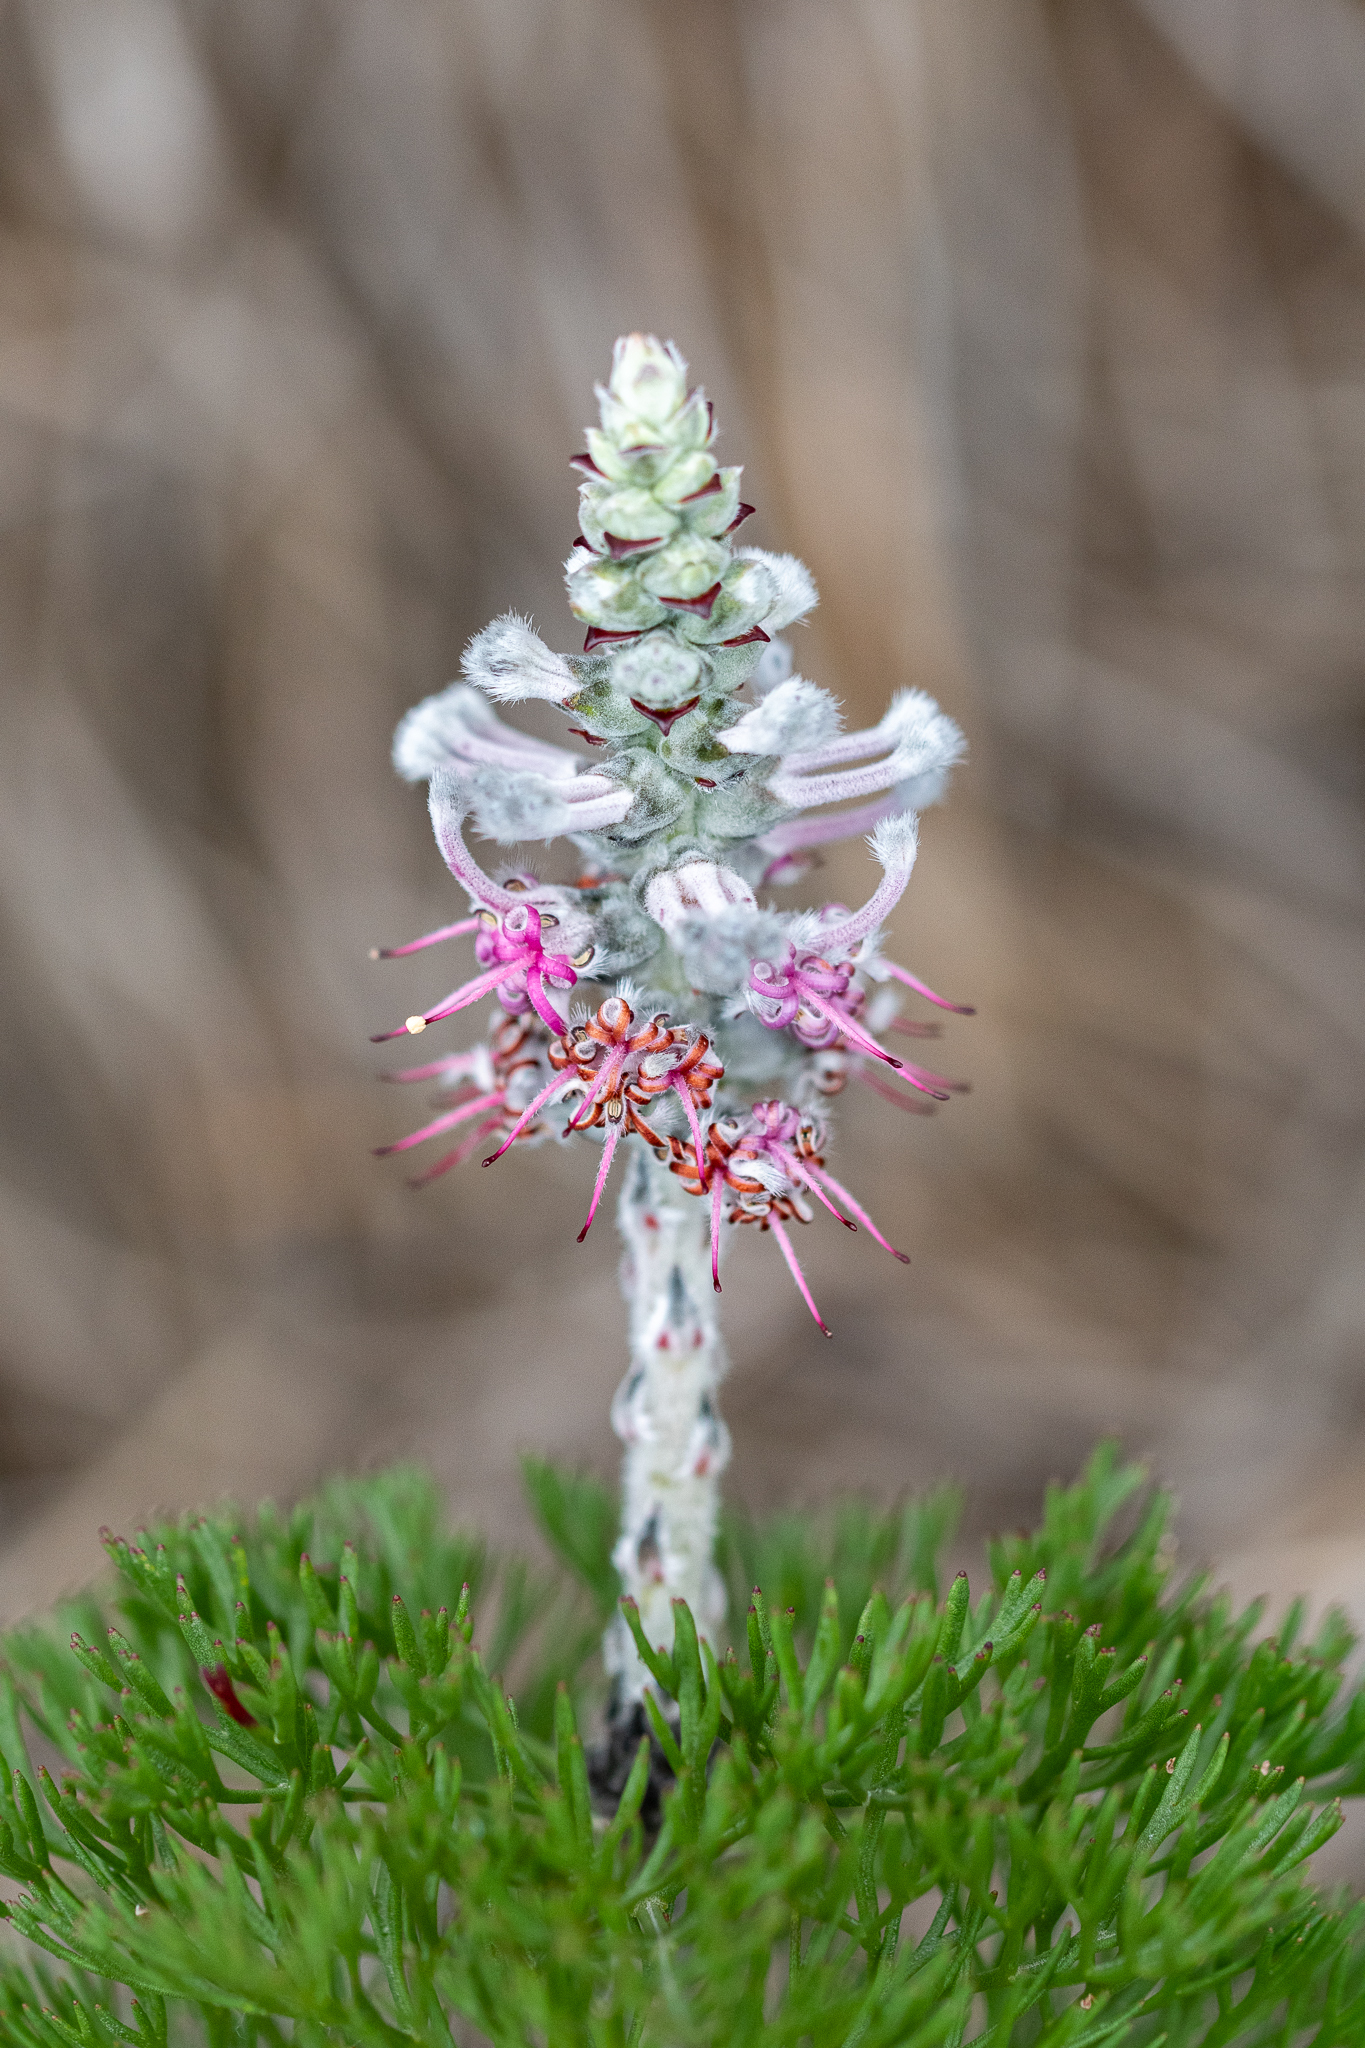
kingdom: Plantae
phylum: Tracheophyta
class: Magnoliopsida
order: Proteales
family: Proteaceae
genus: Paranomus
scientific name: Paranomus bolusii
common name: Overberg sceptre
